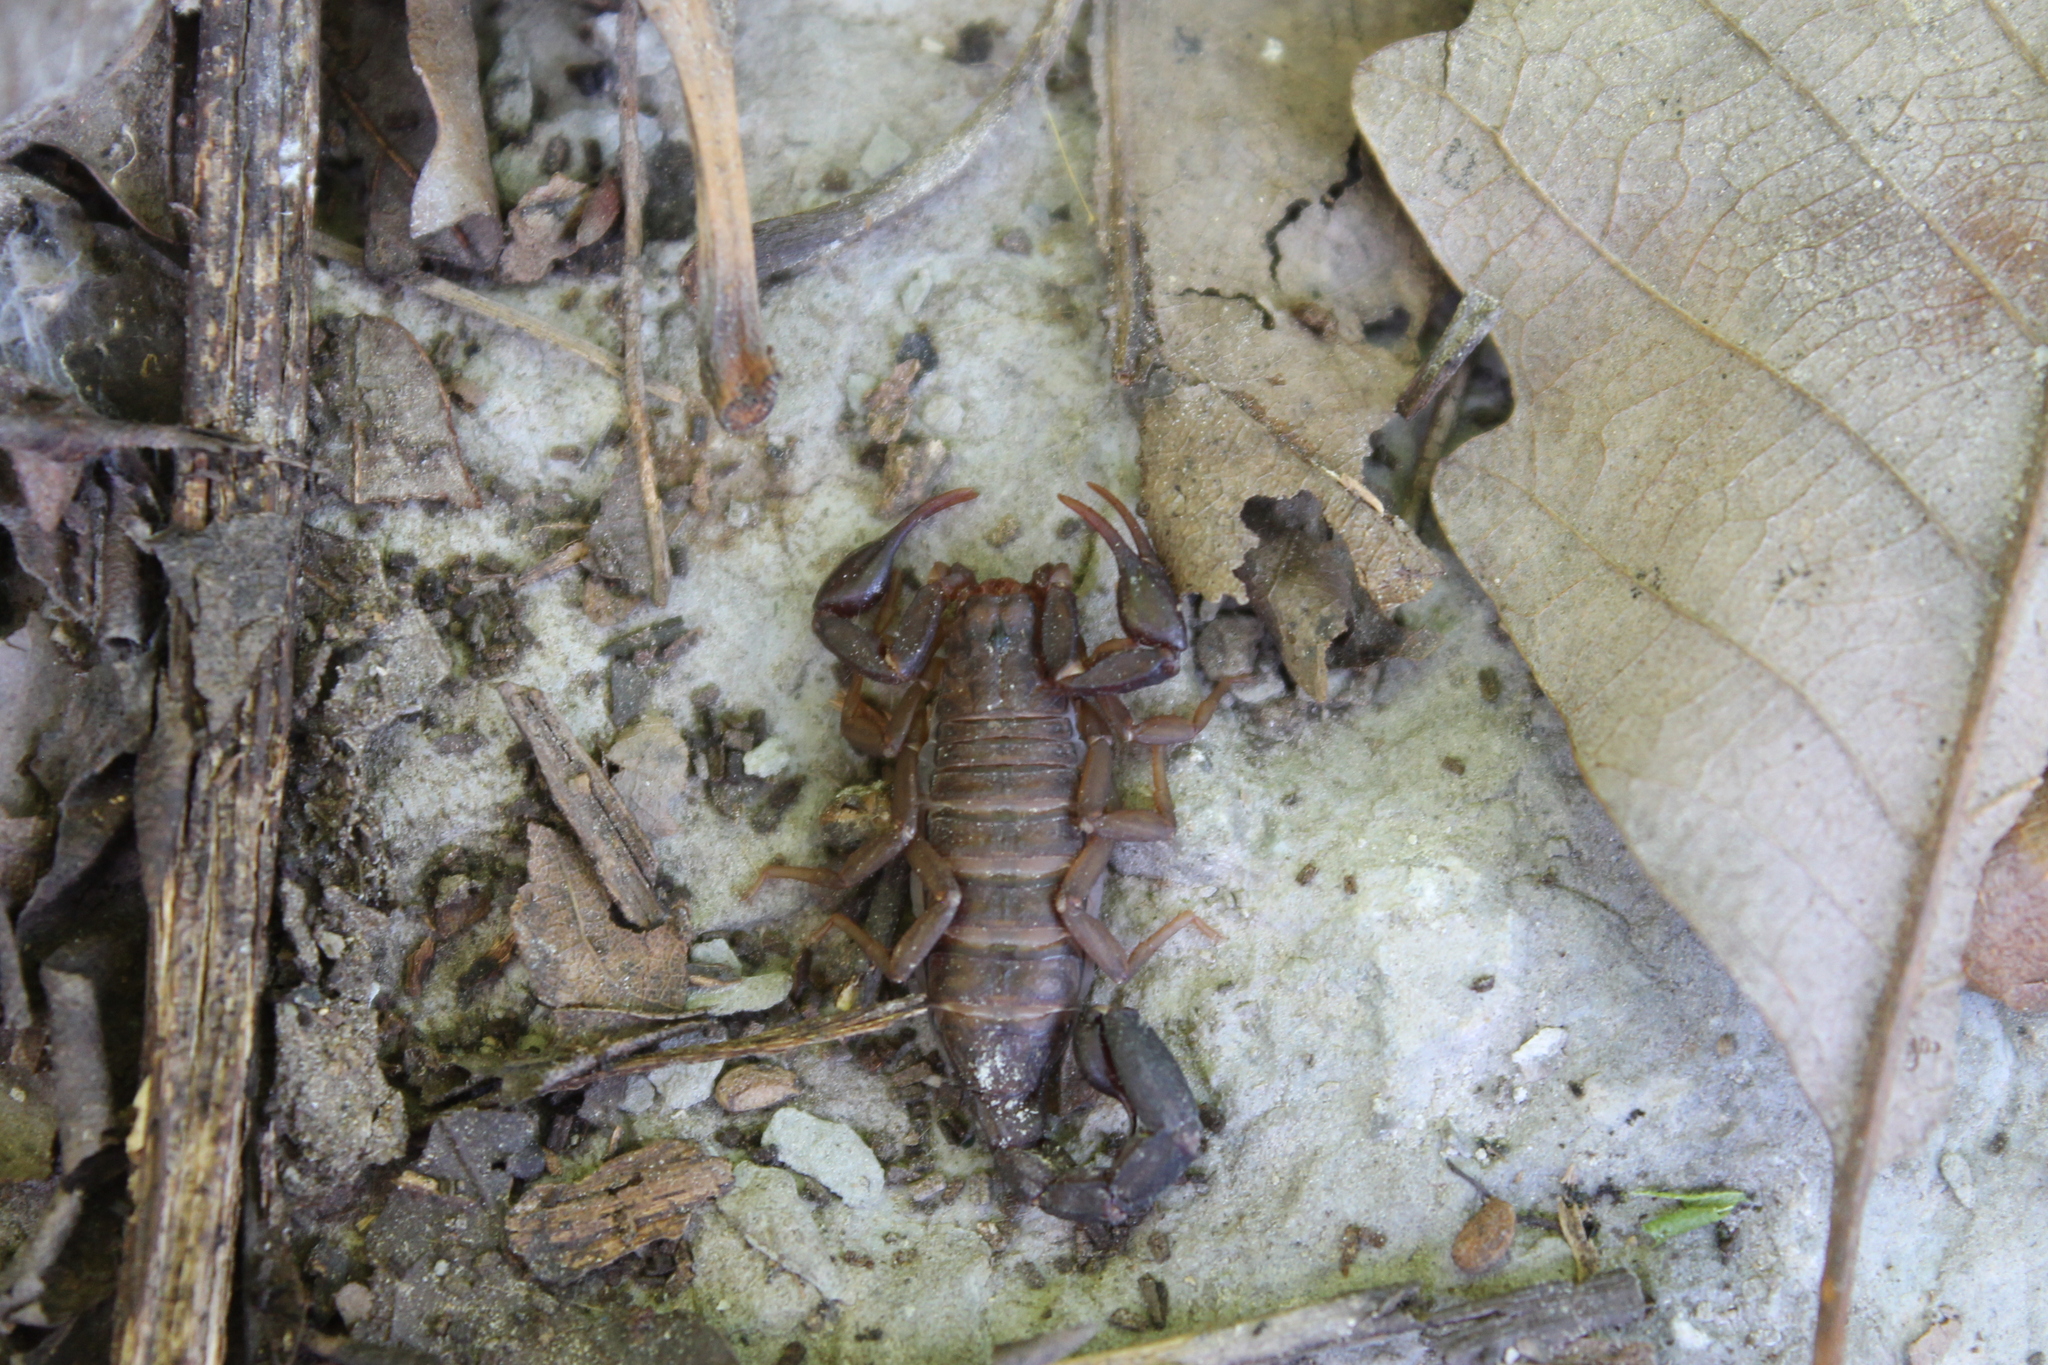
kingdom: Animalia
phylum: Arthropoda
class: Arachnida
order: Scorpiones
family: Vaejovidae
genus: Vaejovis
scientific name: Vaejovis carolinianus
